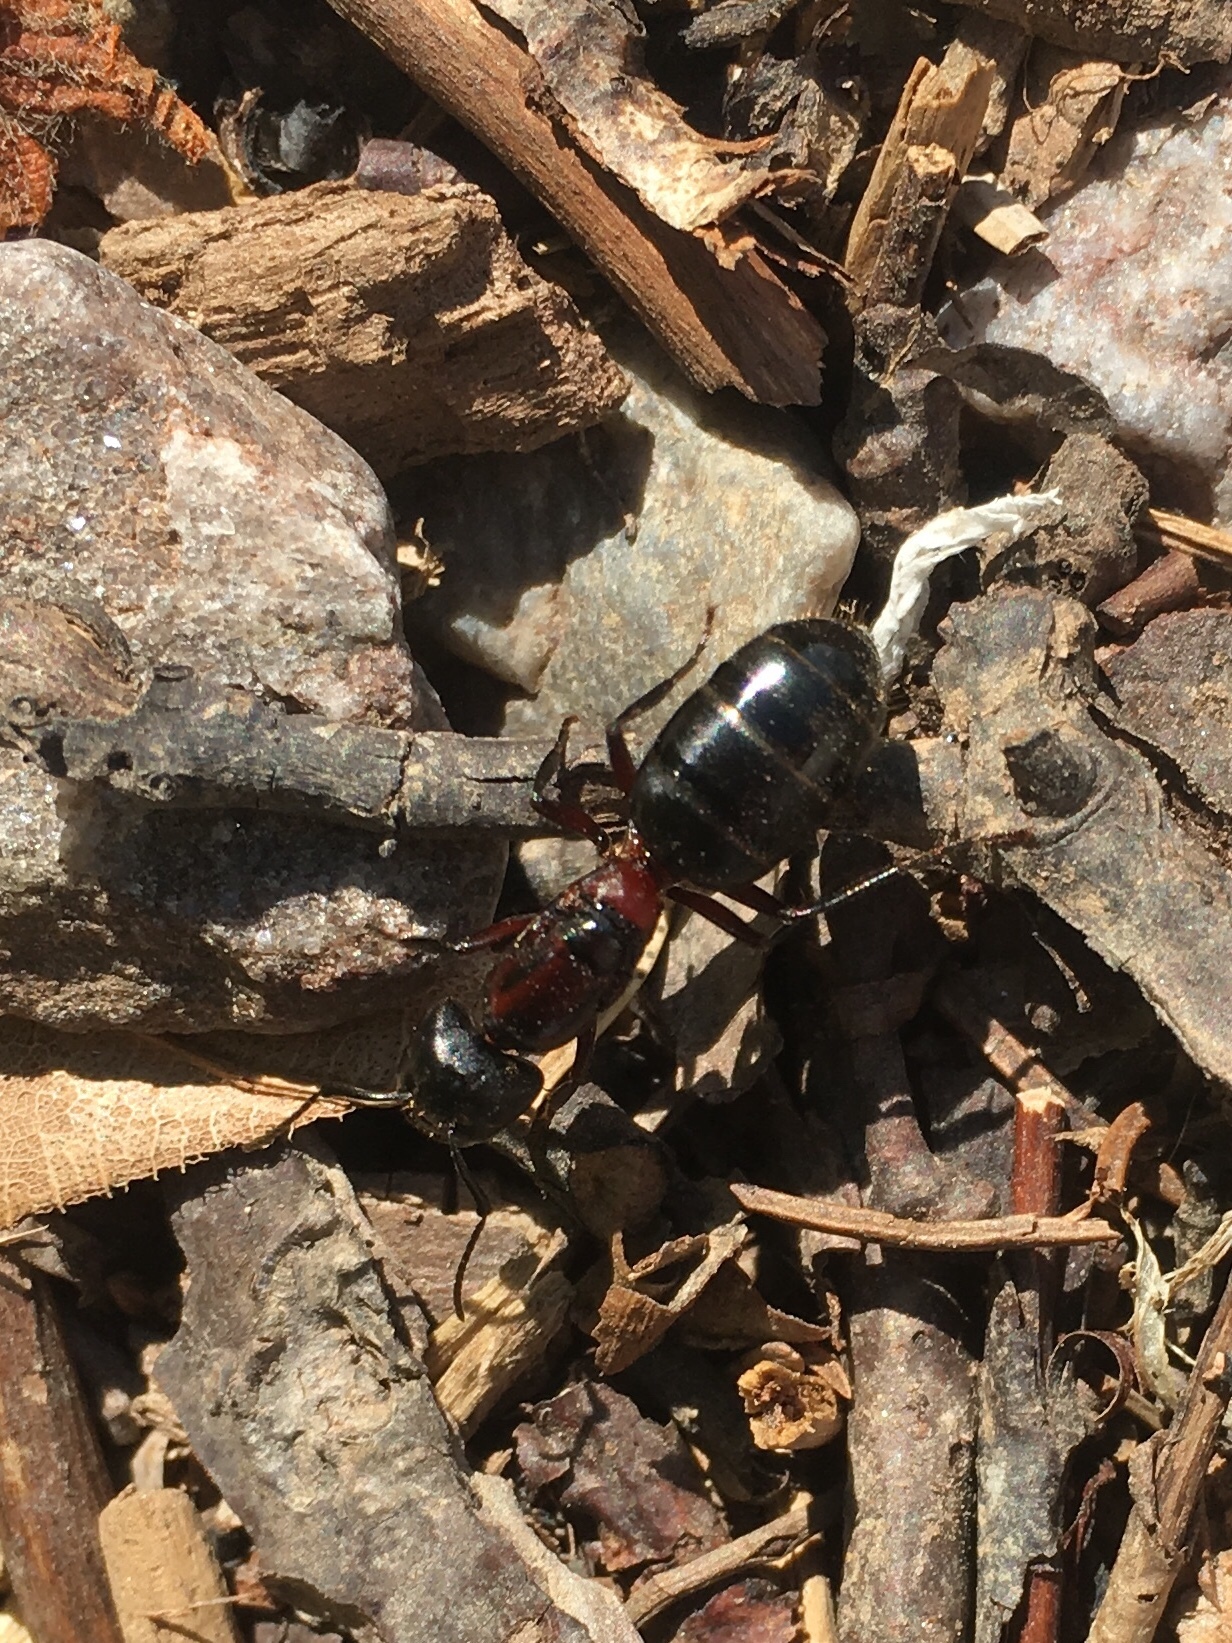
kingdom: Animalia
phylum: Arthropoda
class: Insecta
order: Hymenoptera
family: Formicidae
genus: Camponotus
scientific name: Camponotus novaeboracensis
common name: New york carpenter ant
